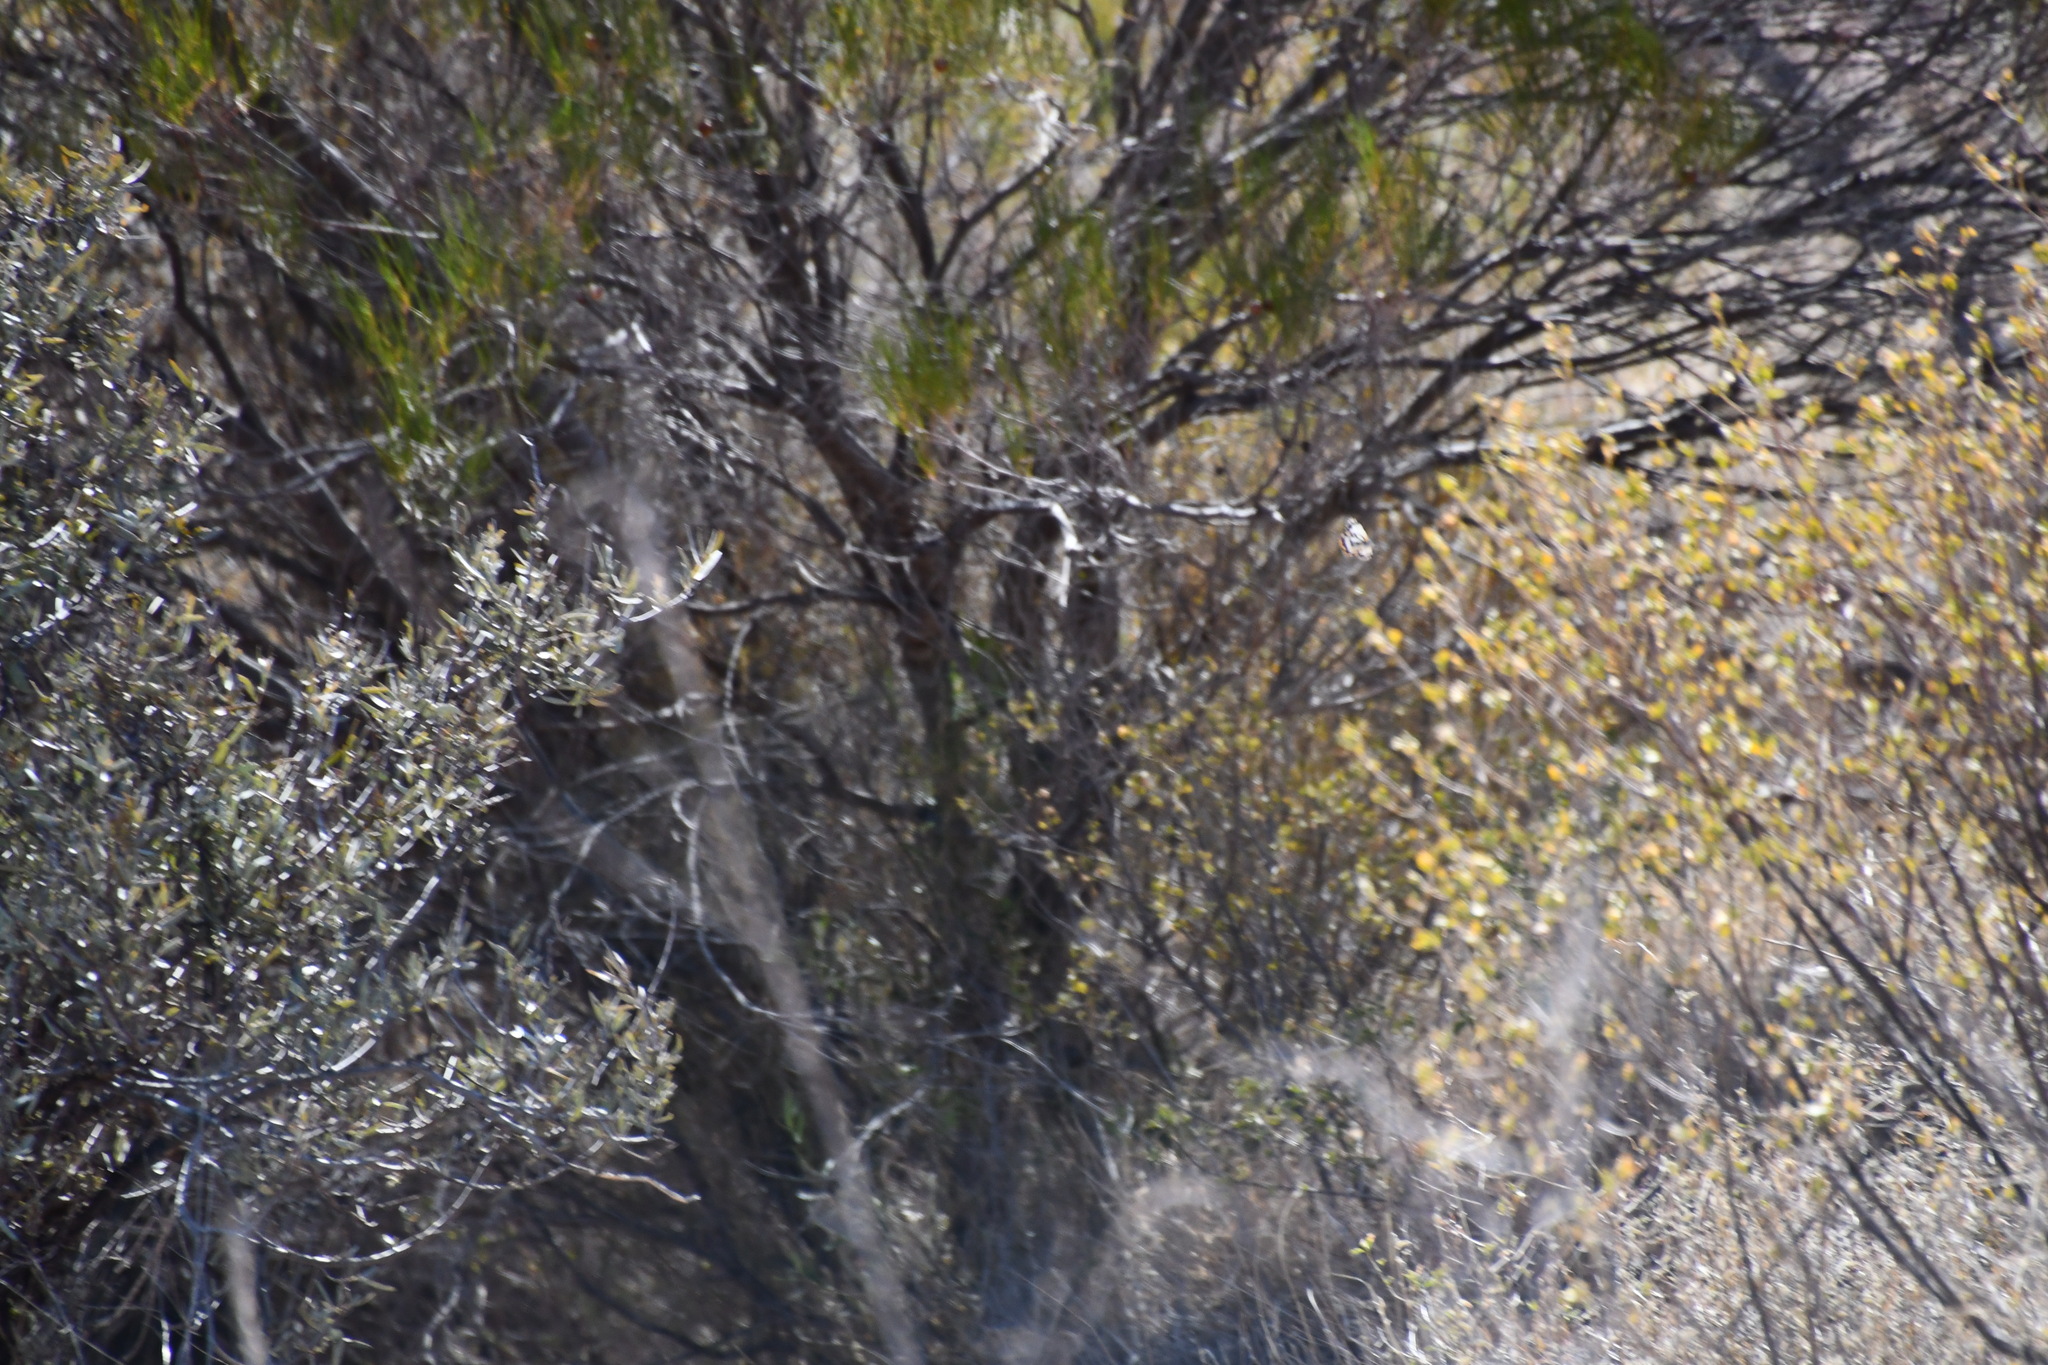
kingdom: Animalia
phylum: Arthropoda
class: Insecta
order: Lepidoptera
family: Pieridae
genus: Belenois
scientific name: Belenois java
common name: Caper white
